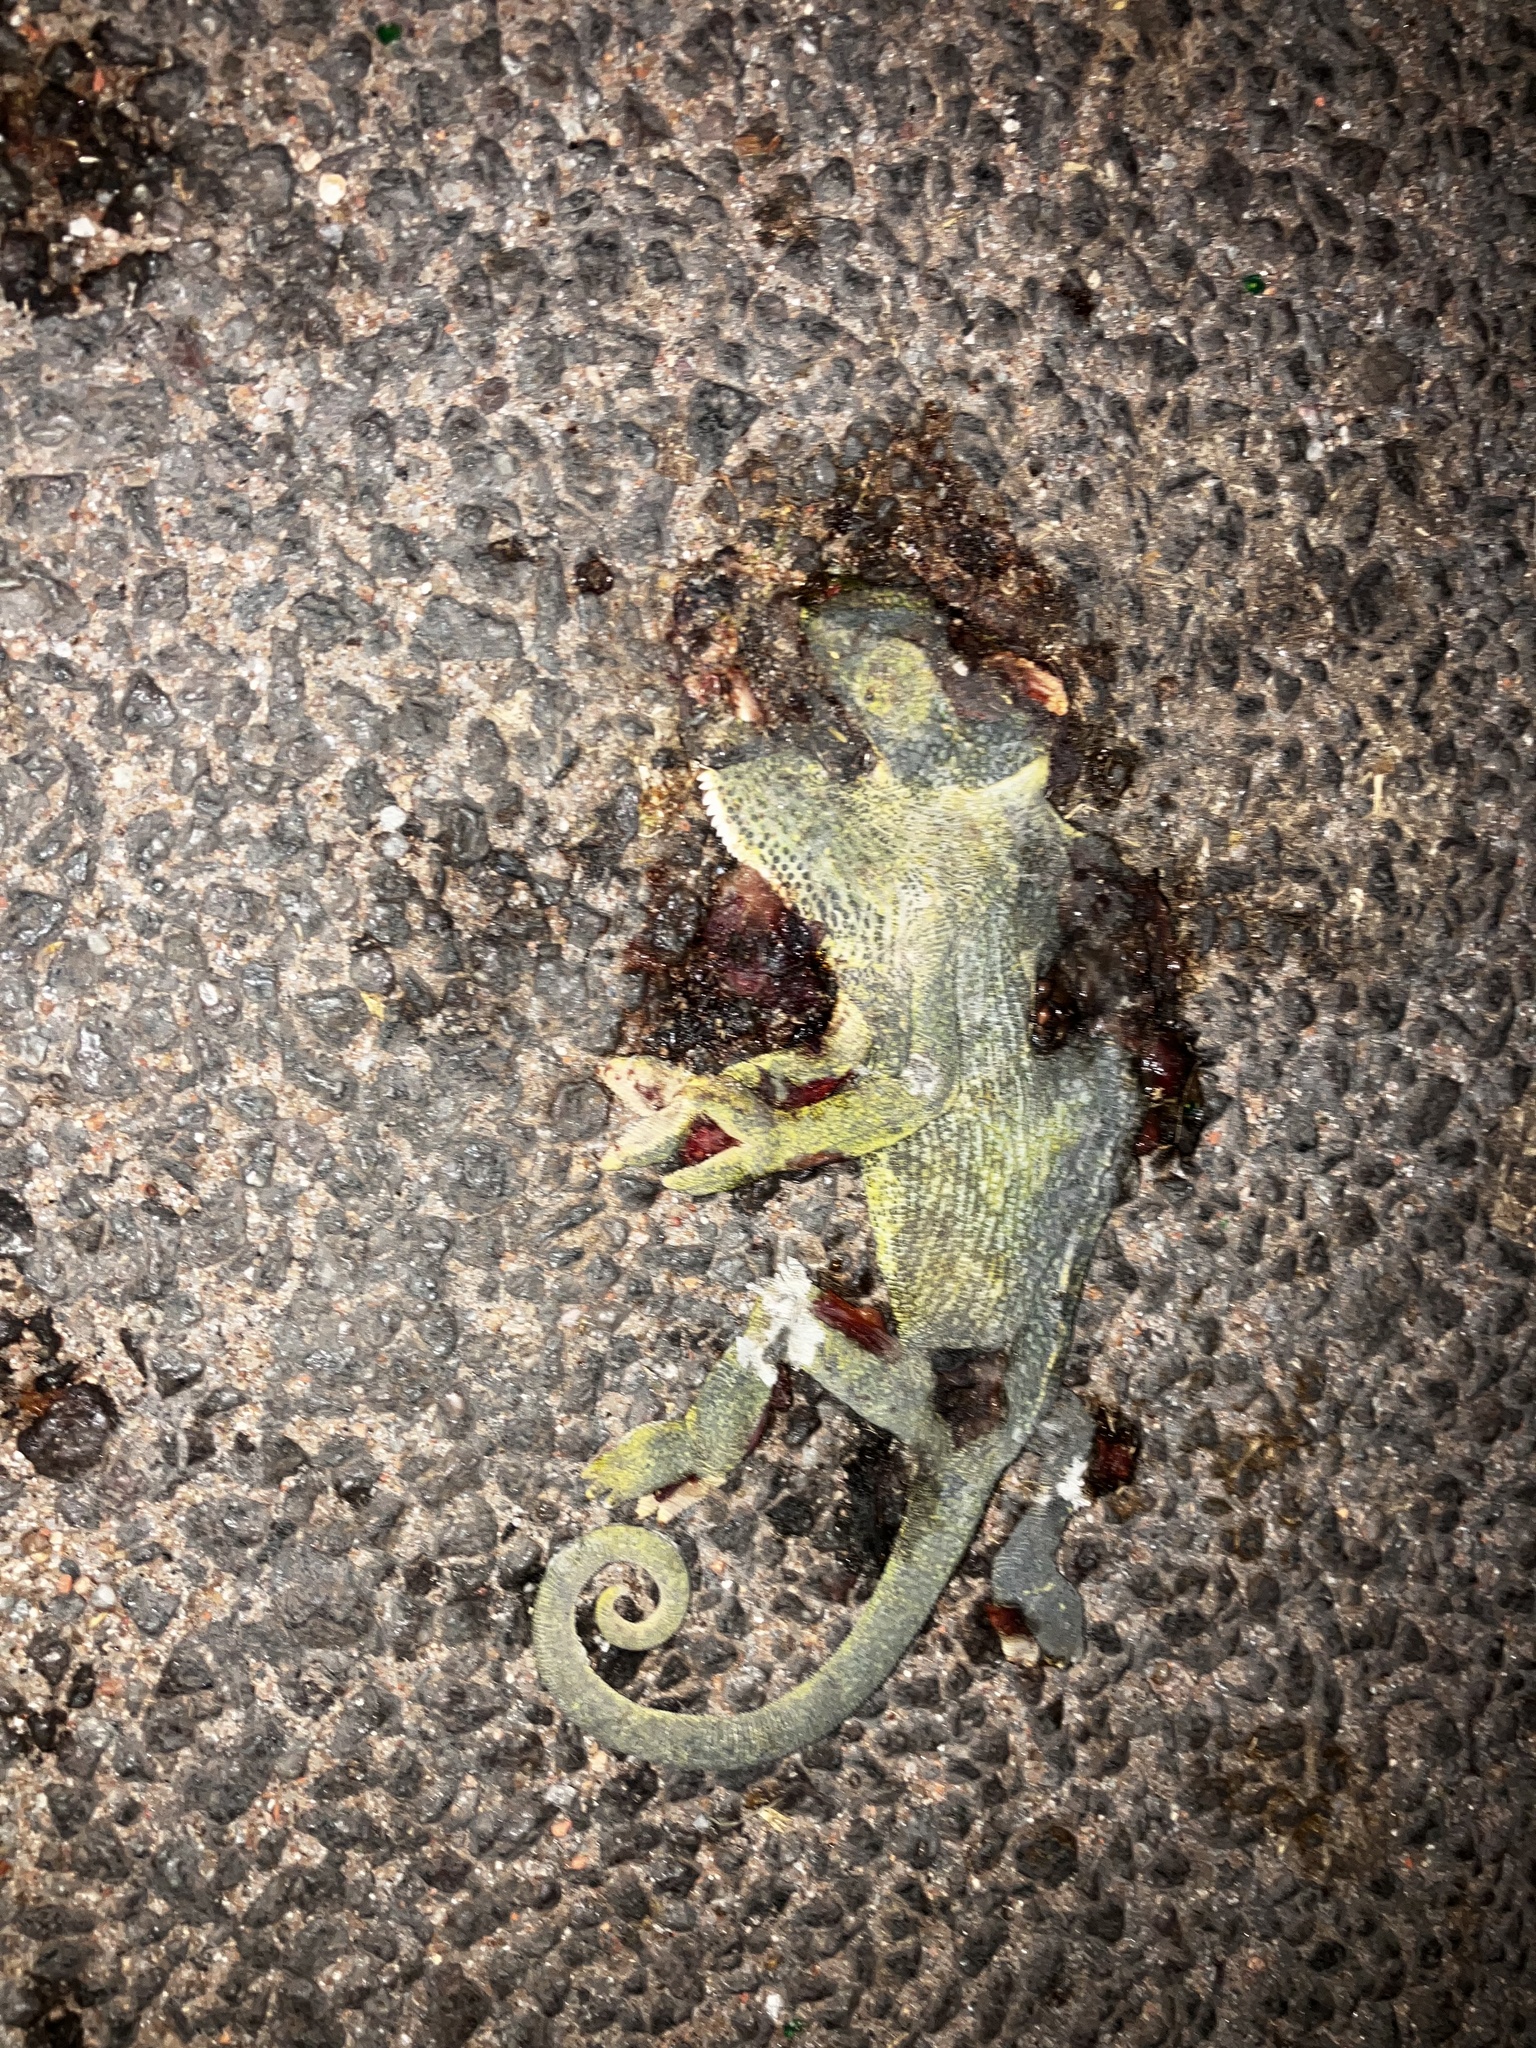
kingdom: Animalia
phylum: Chordata
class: Squamata
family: Chamaeleonidae
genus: Chamaeleo
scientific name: Chamaeleo zeylanicus
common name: Indian chameleon
